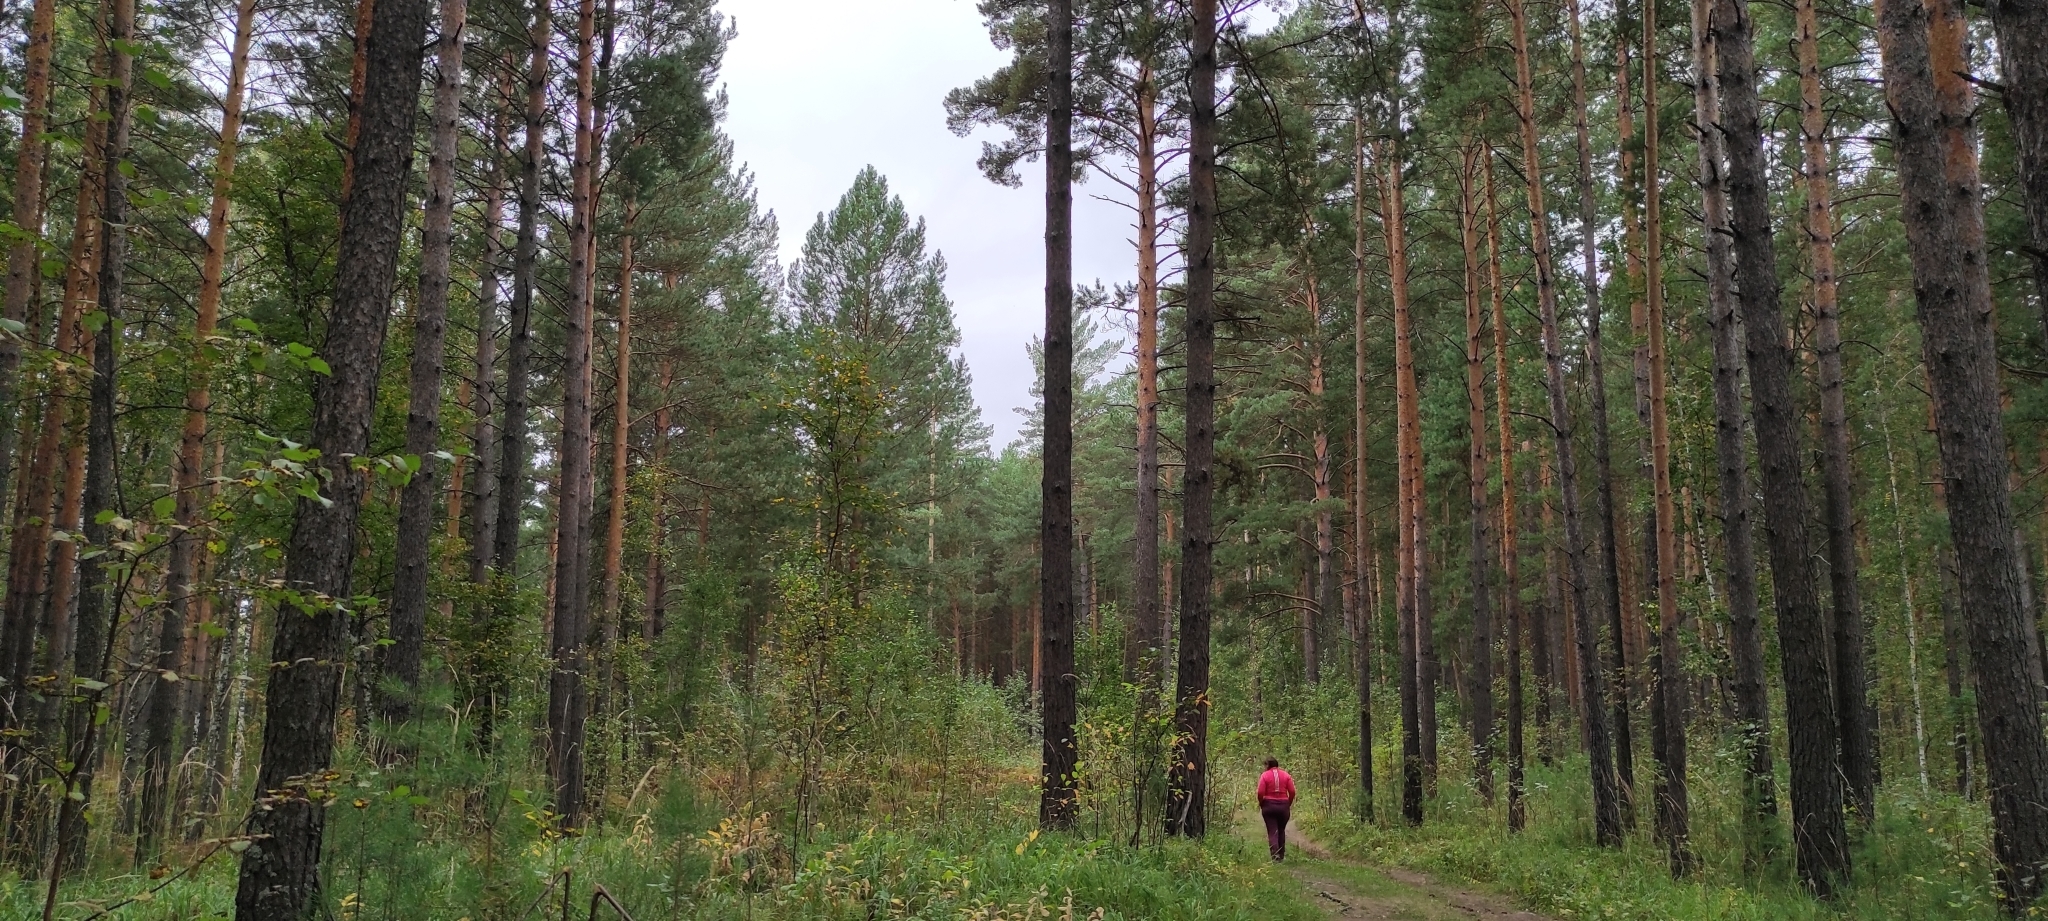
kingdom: Plantae
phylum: Tracheophyta
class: Pinopsida
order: Pinales
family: Pinaceae
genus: Pinus
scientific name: Pinus sylvestris
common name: Scots pine
